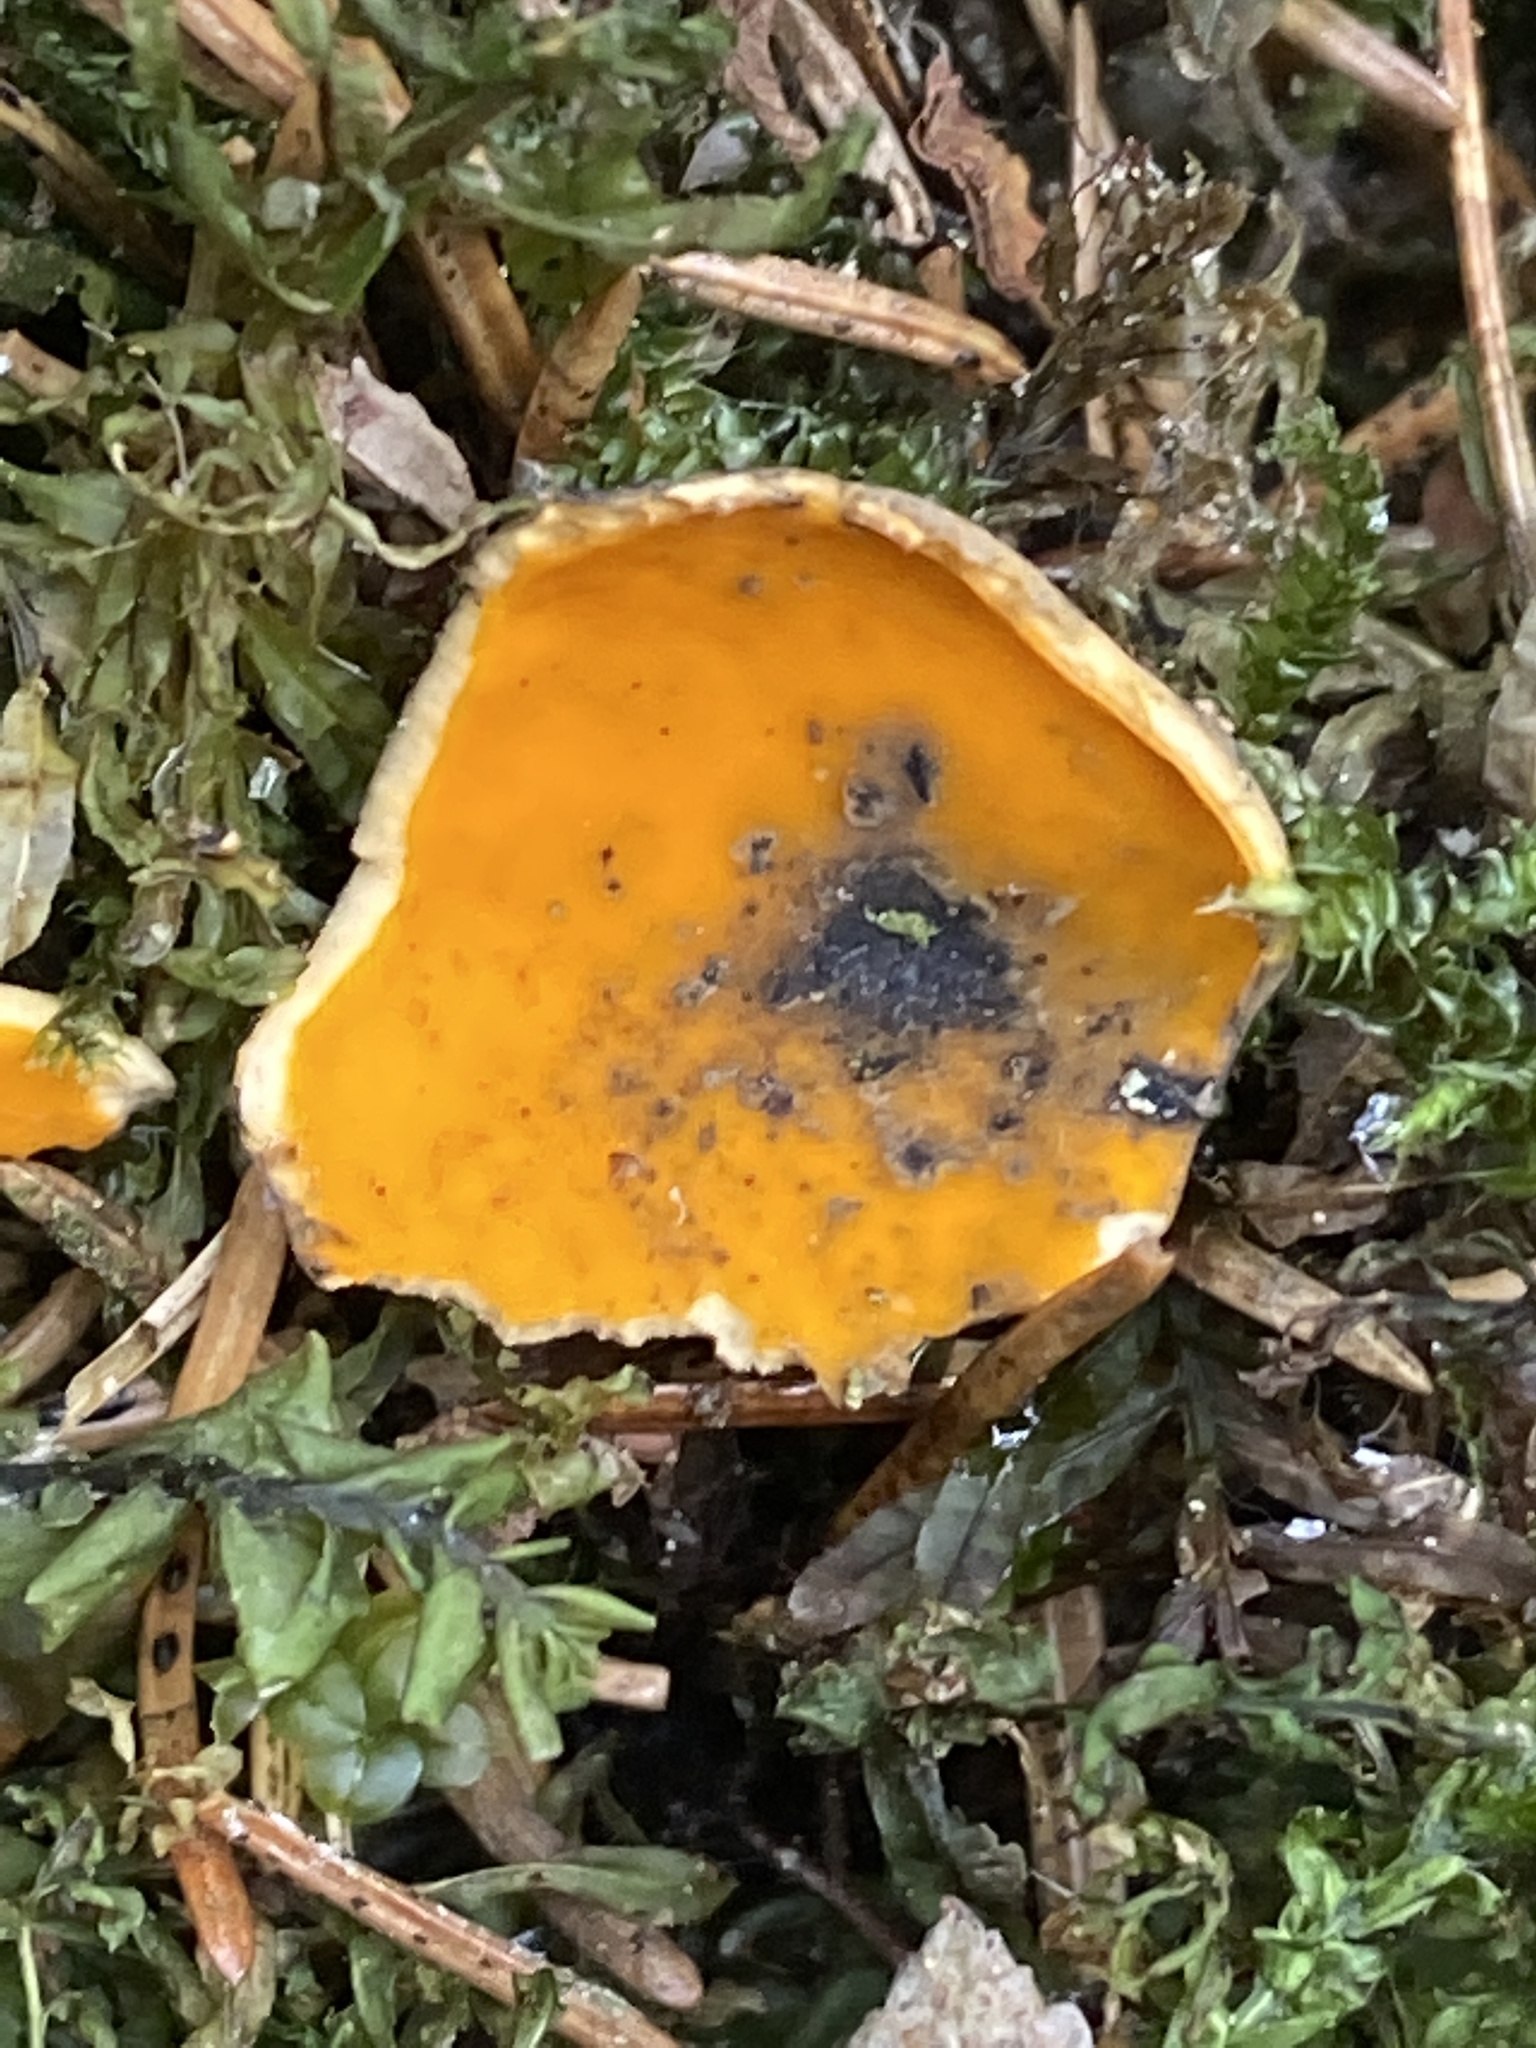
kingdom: Fungi
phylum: Ascomycota
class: Pezizomycetes
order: Pezizales
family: Caloscyphaceae
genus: Caloscypha
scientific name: Caloscypha fulgens
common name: Golden cup
